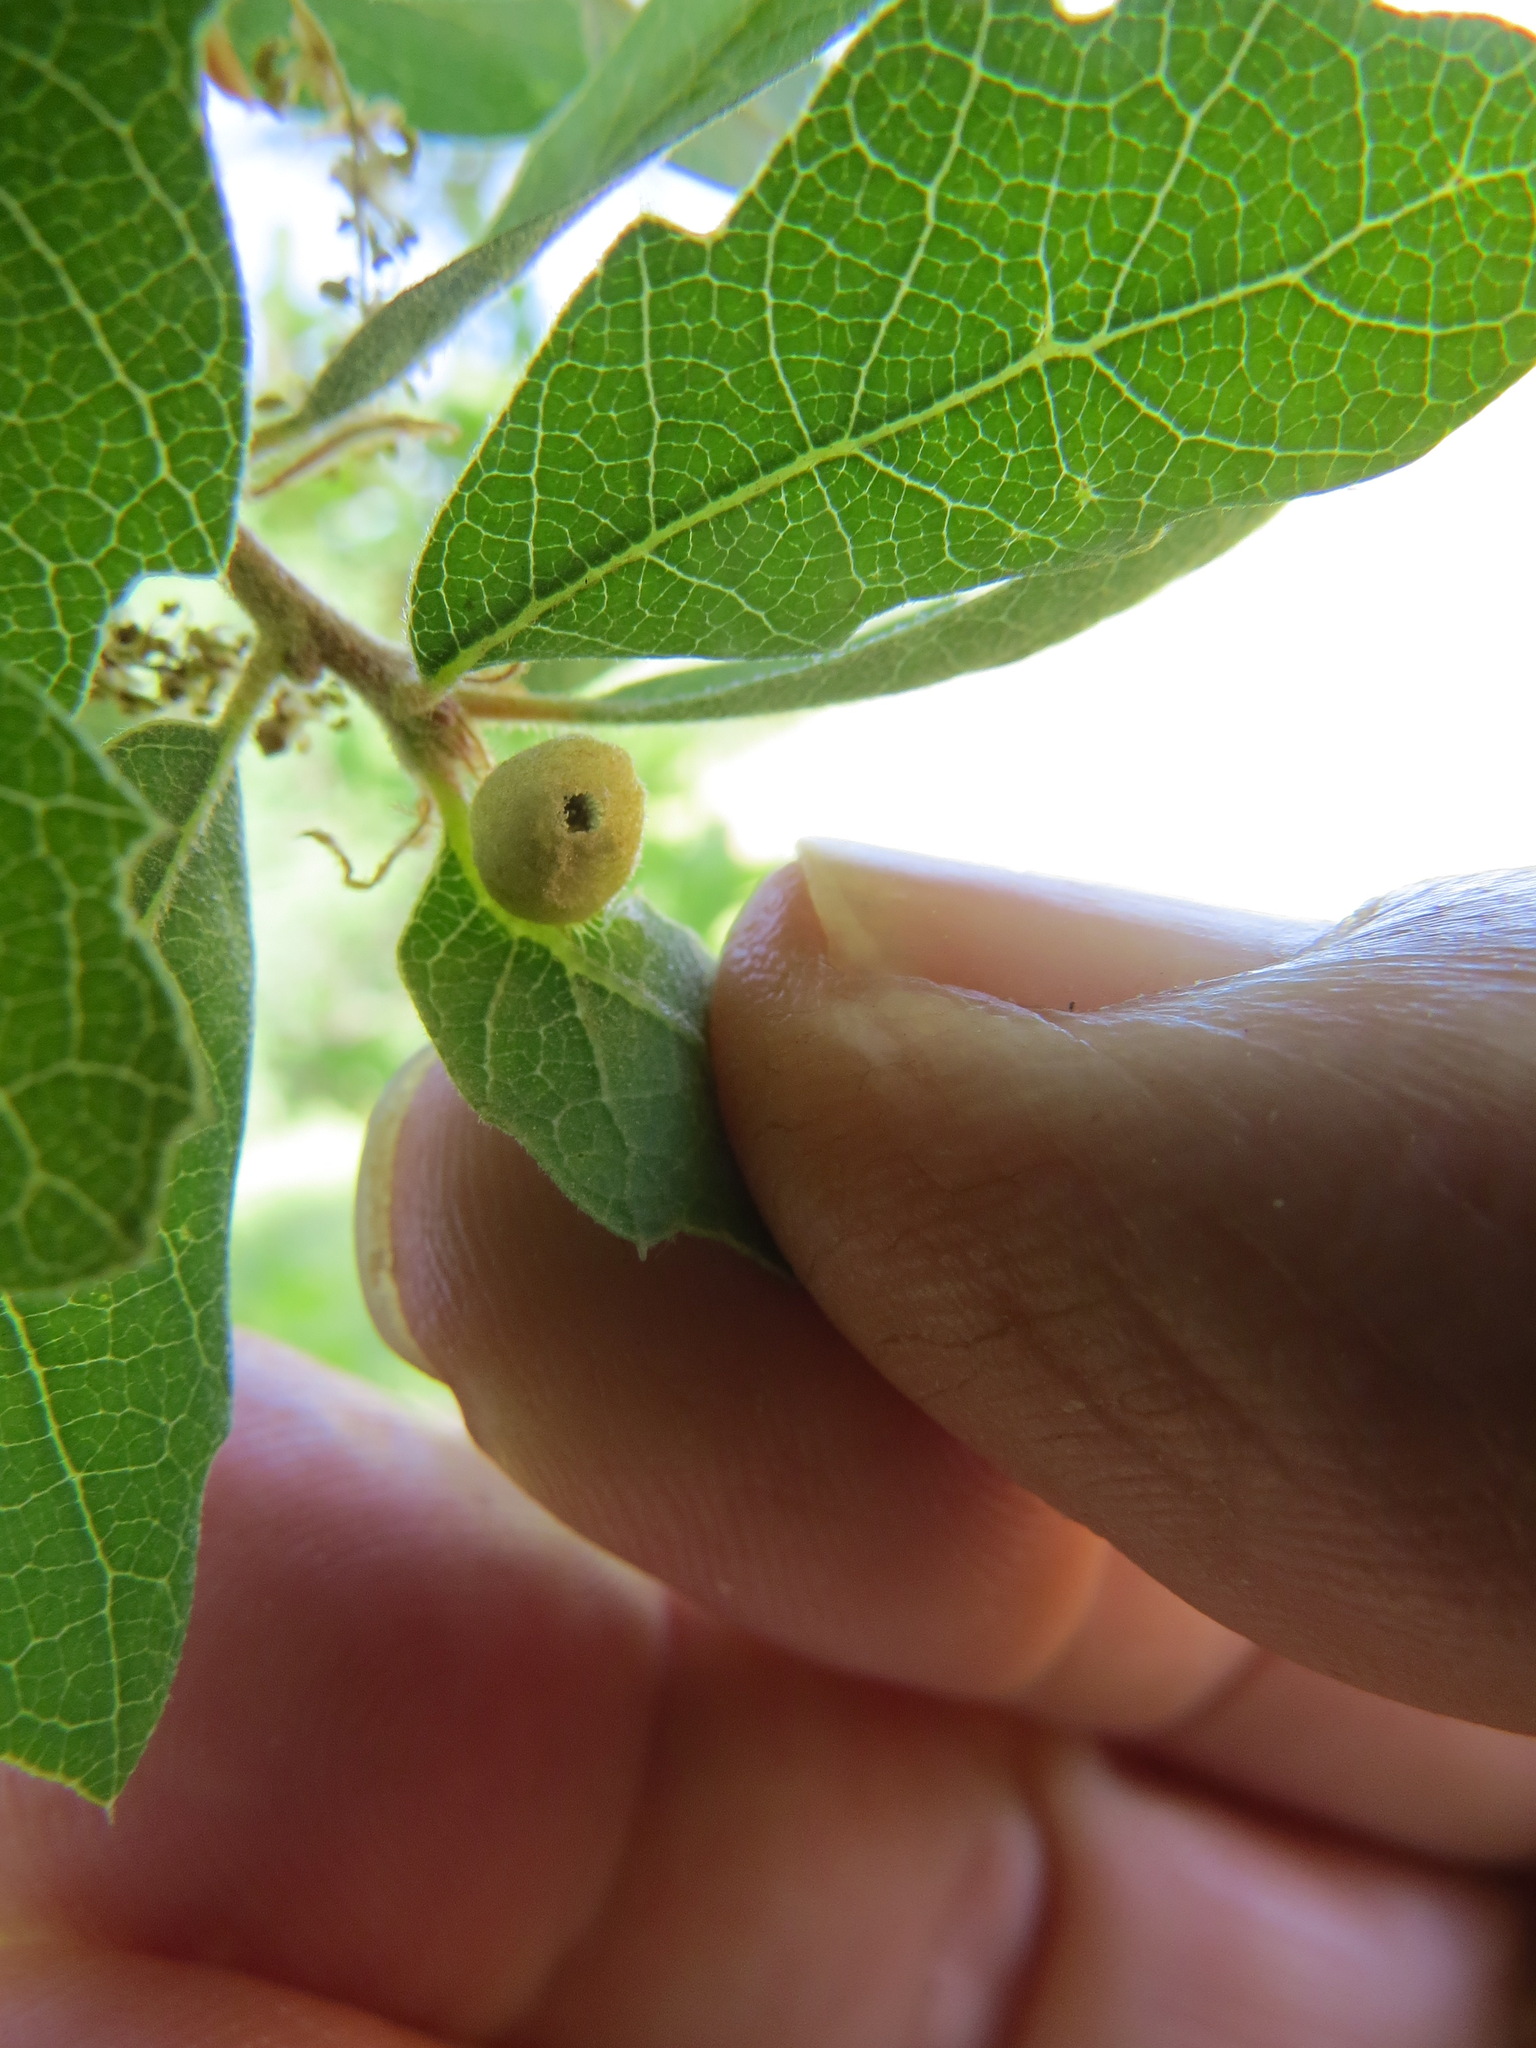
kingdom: Animalia
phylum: Arthropoda
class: Insecta
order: Hymenoptera
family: Cynipidae
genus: Andricus
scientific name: Andricus
